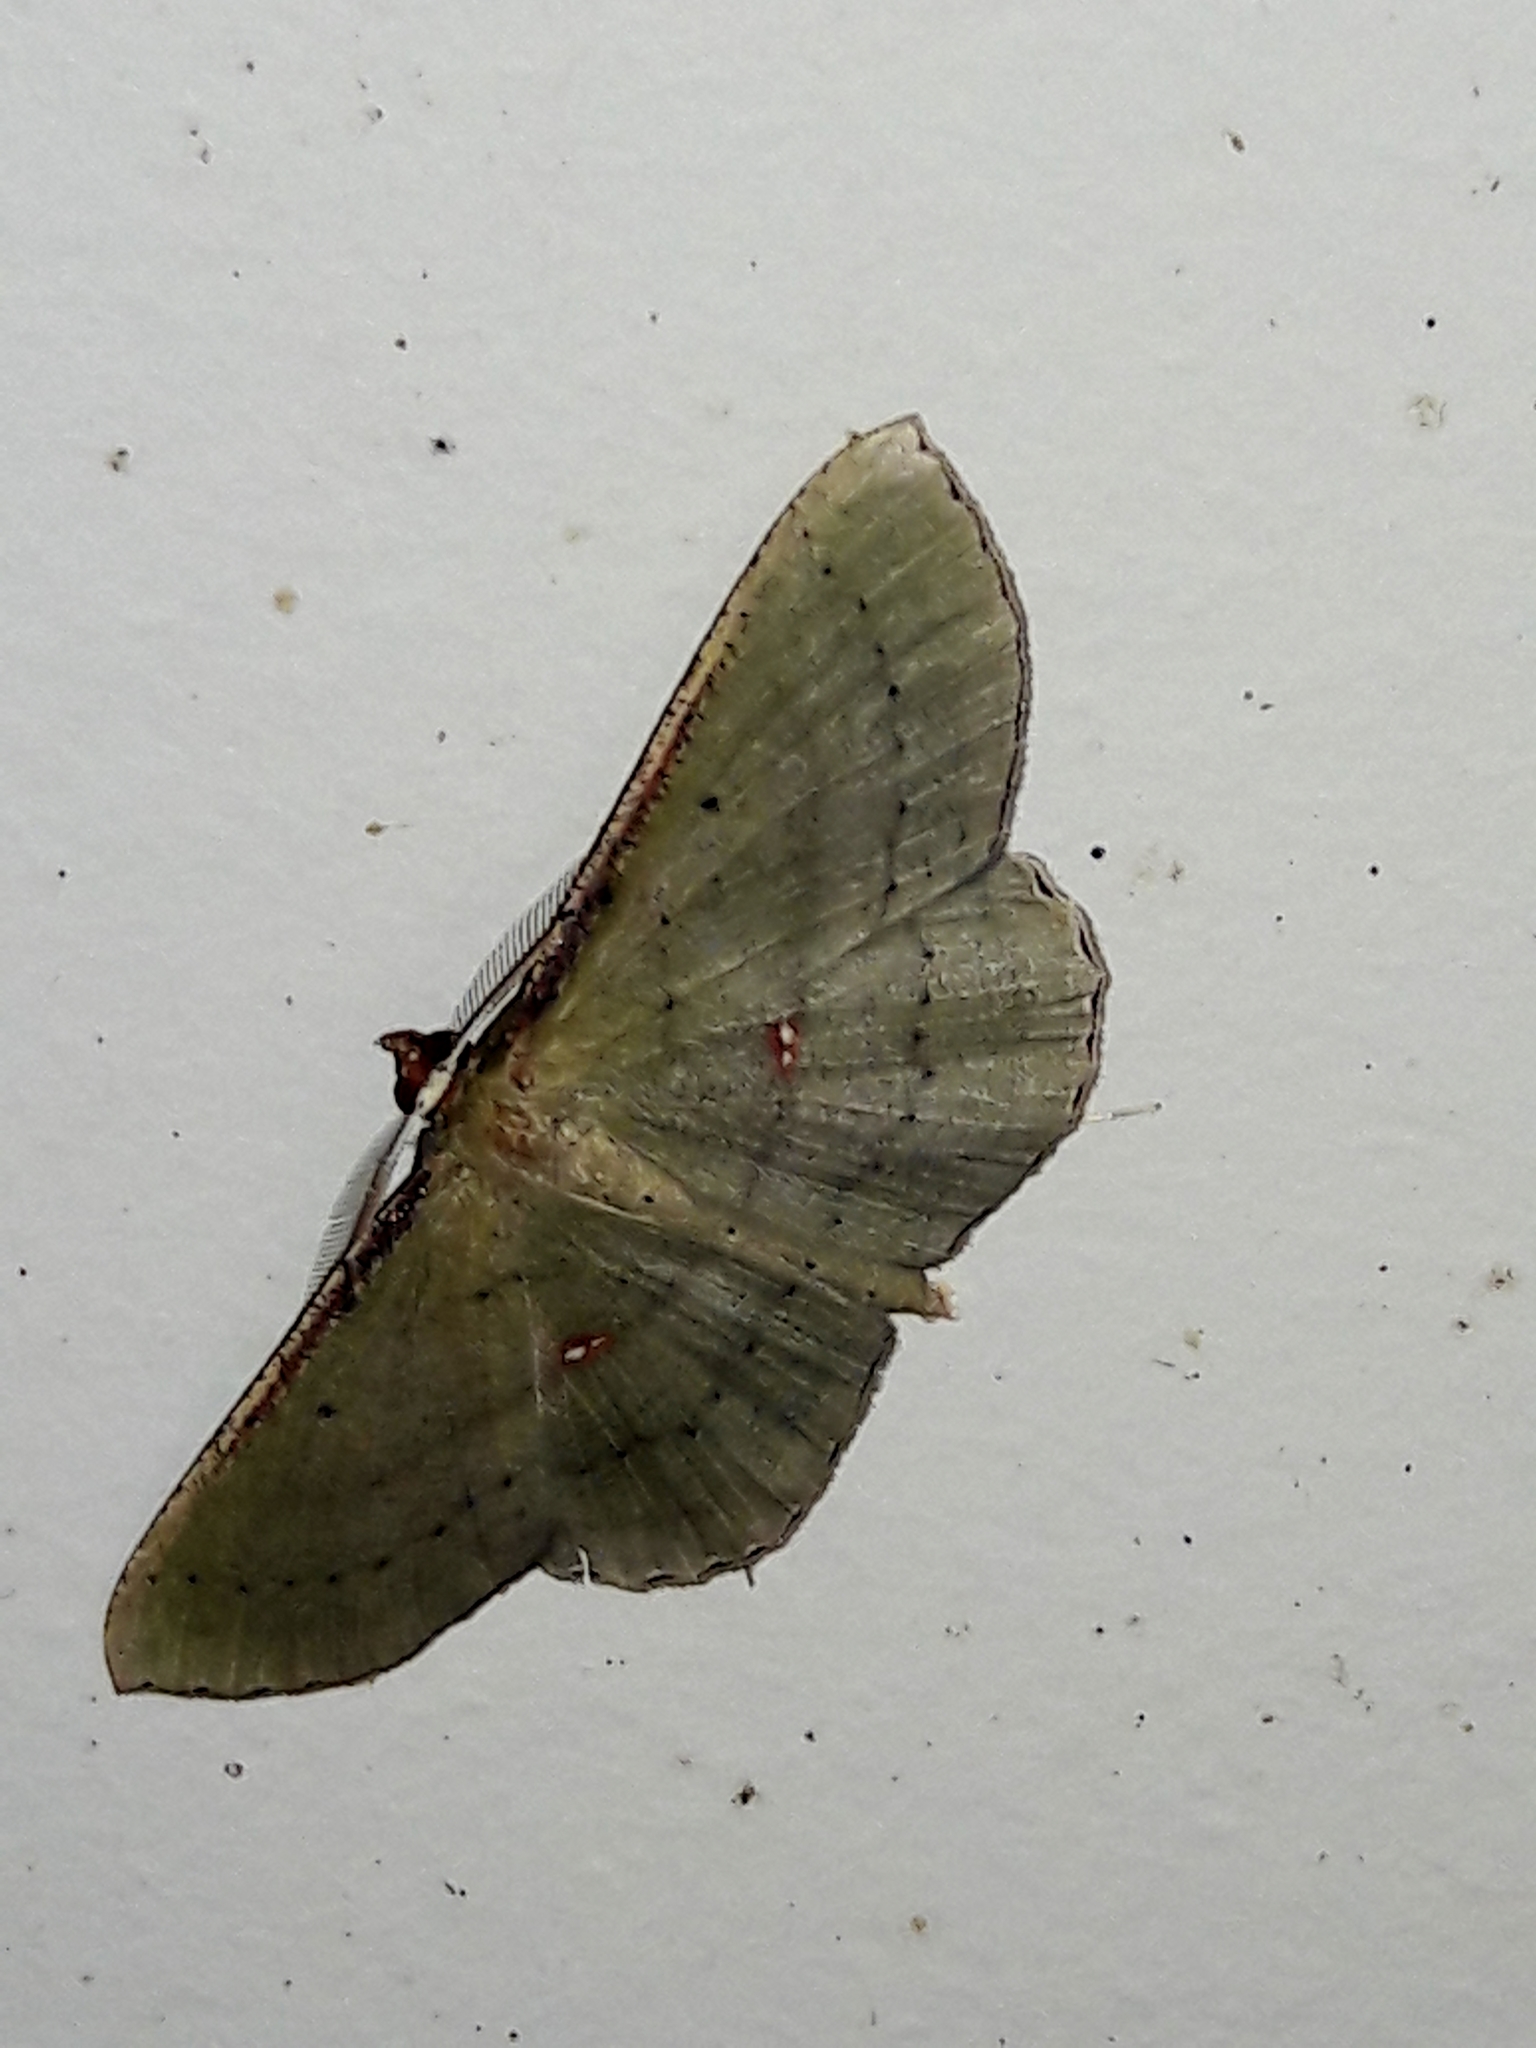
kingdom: Animalia
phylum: Arthropoda
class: Insecta
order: Lepidoptera
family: Geometridae
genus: Ametris
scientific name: Ametris nitocris
